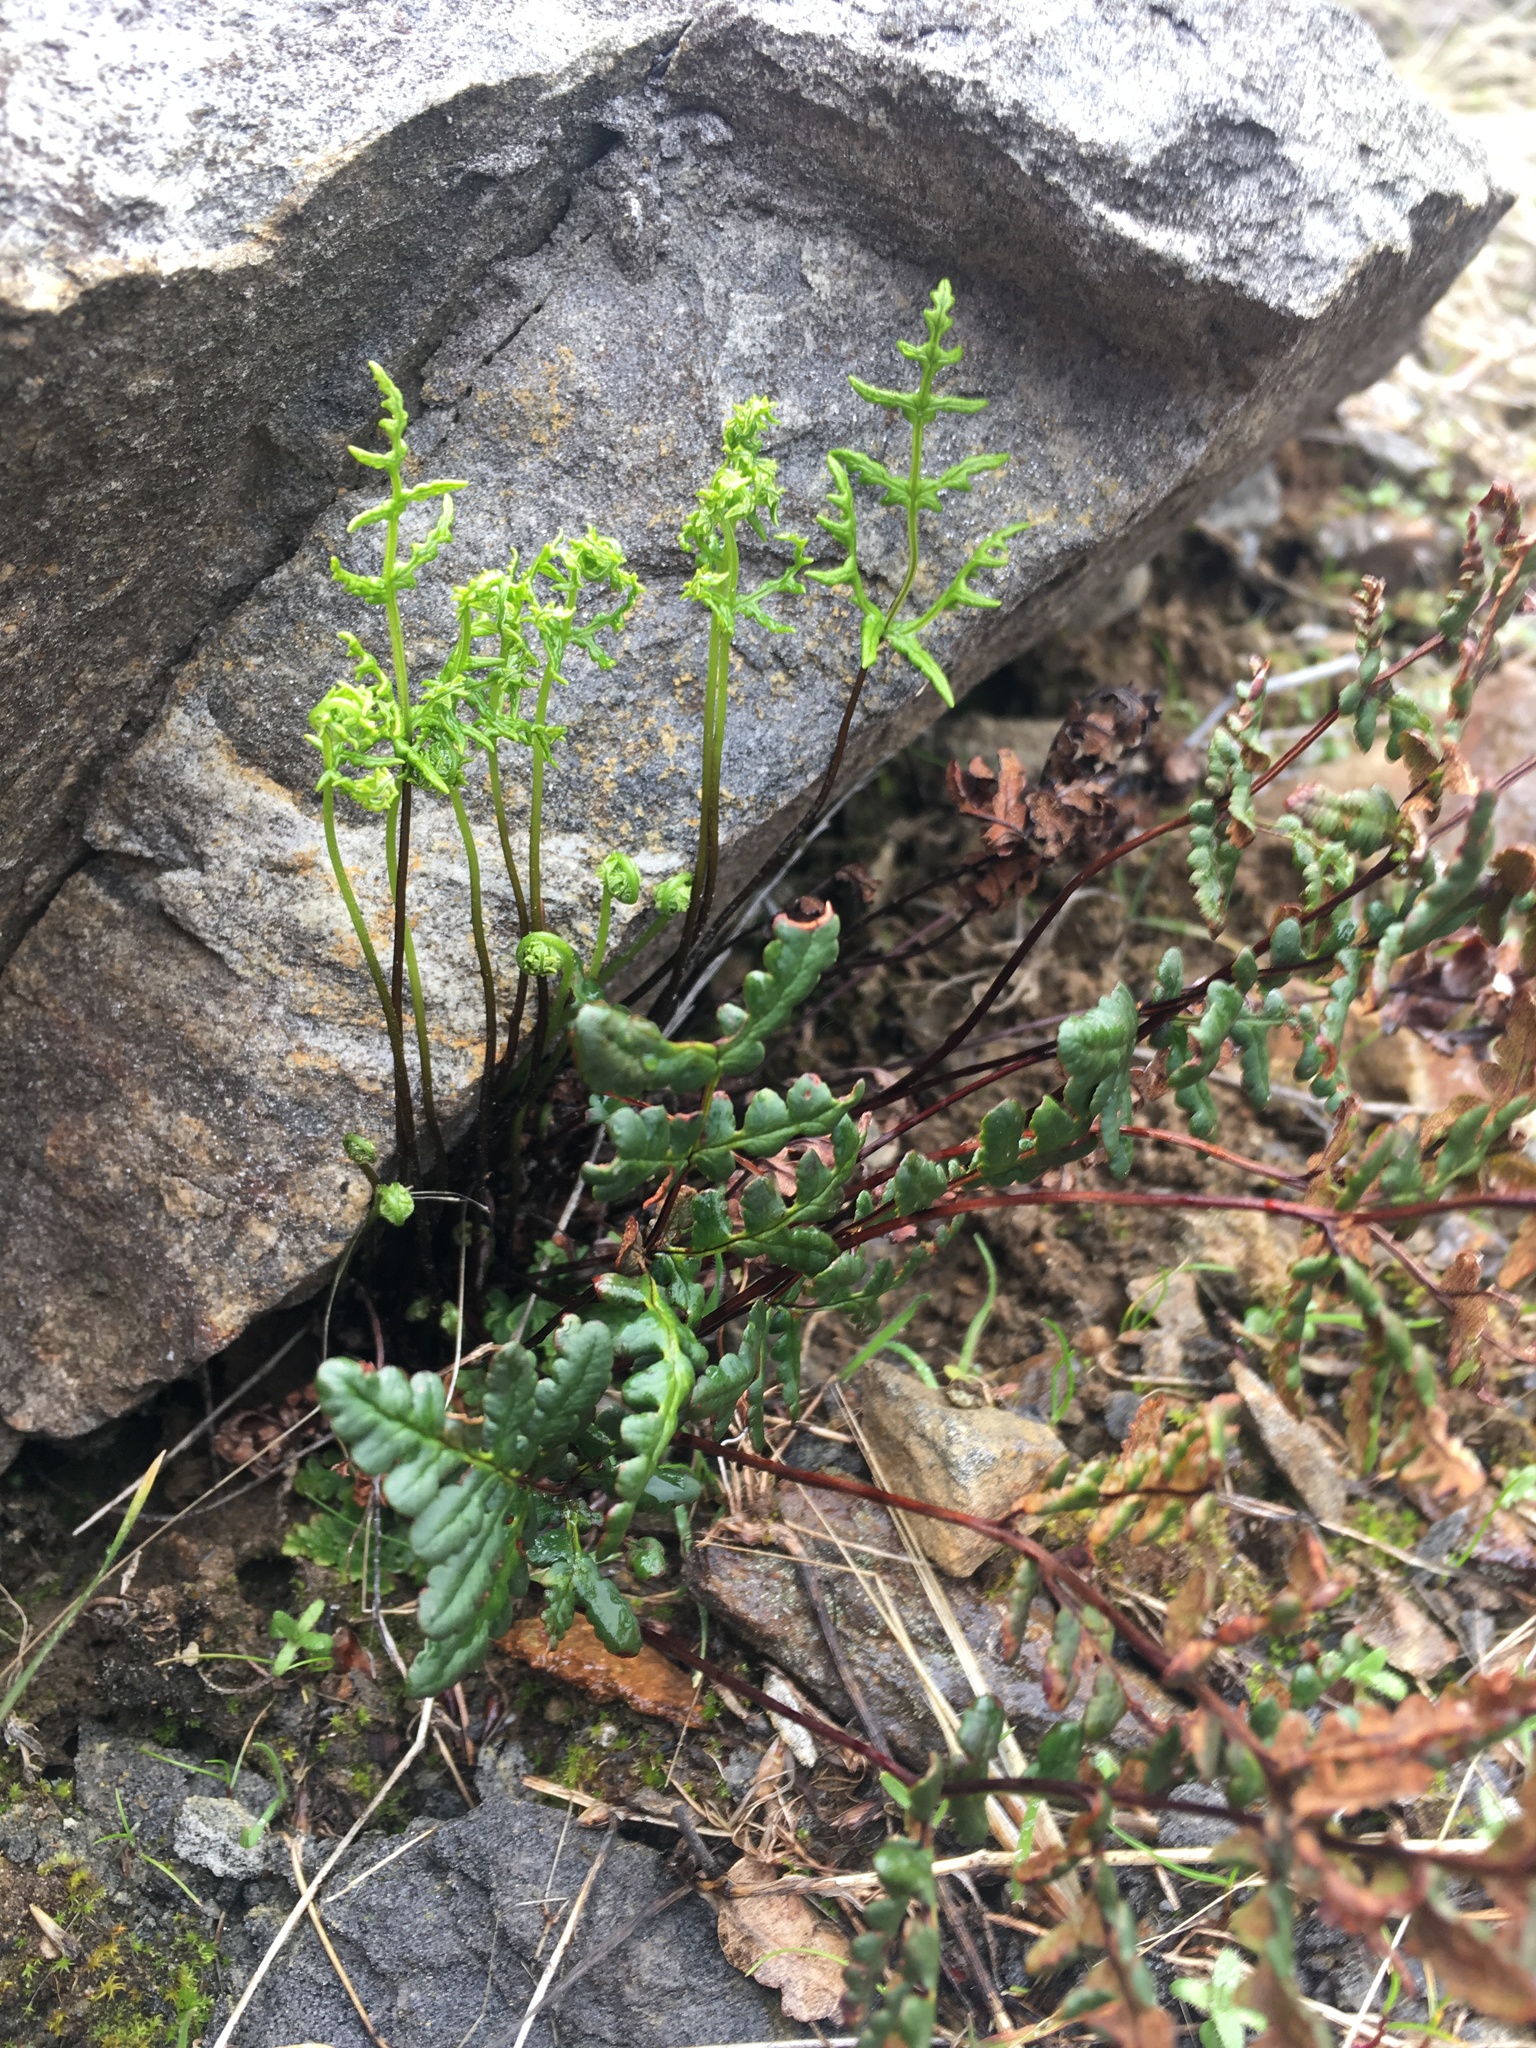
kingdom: Plantae
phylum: Tracheophyta
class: Polypodiopsida
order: Polypodiales
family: Pteridaceae
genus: Pentagramma
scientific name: Pentagramma triangularis
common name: Gold fern
